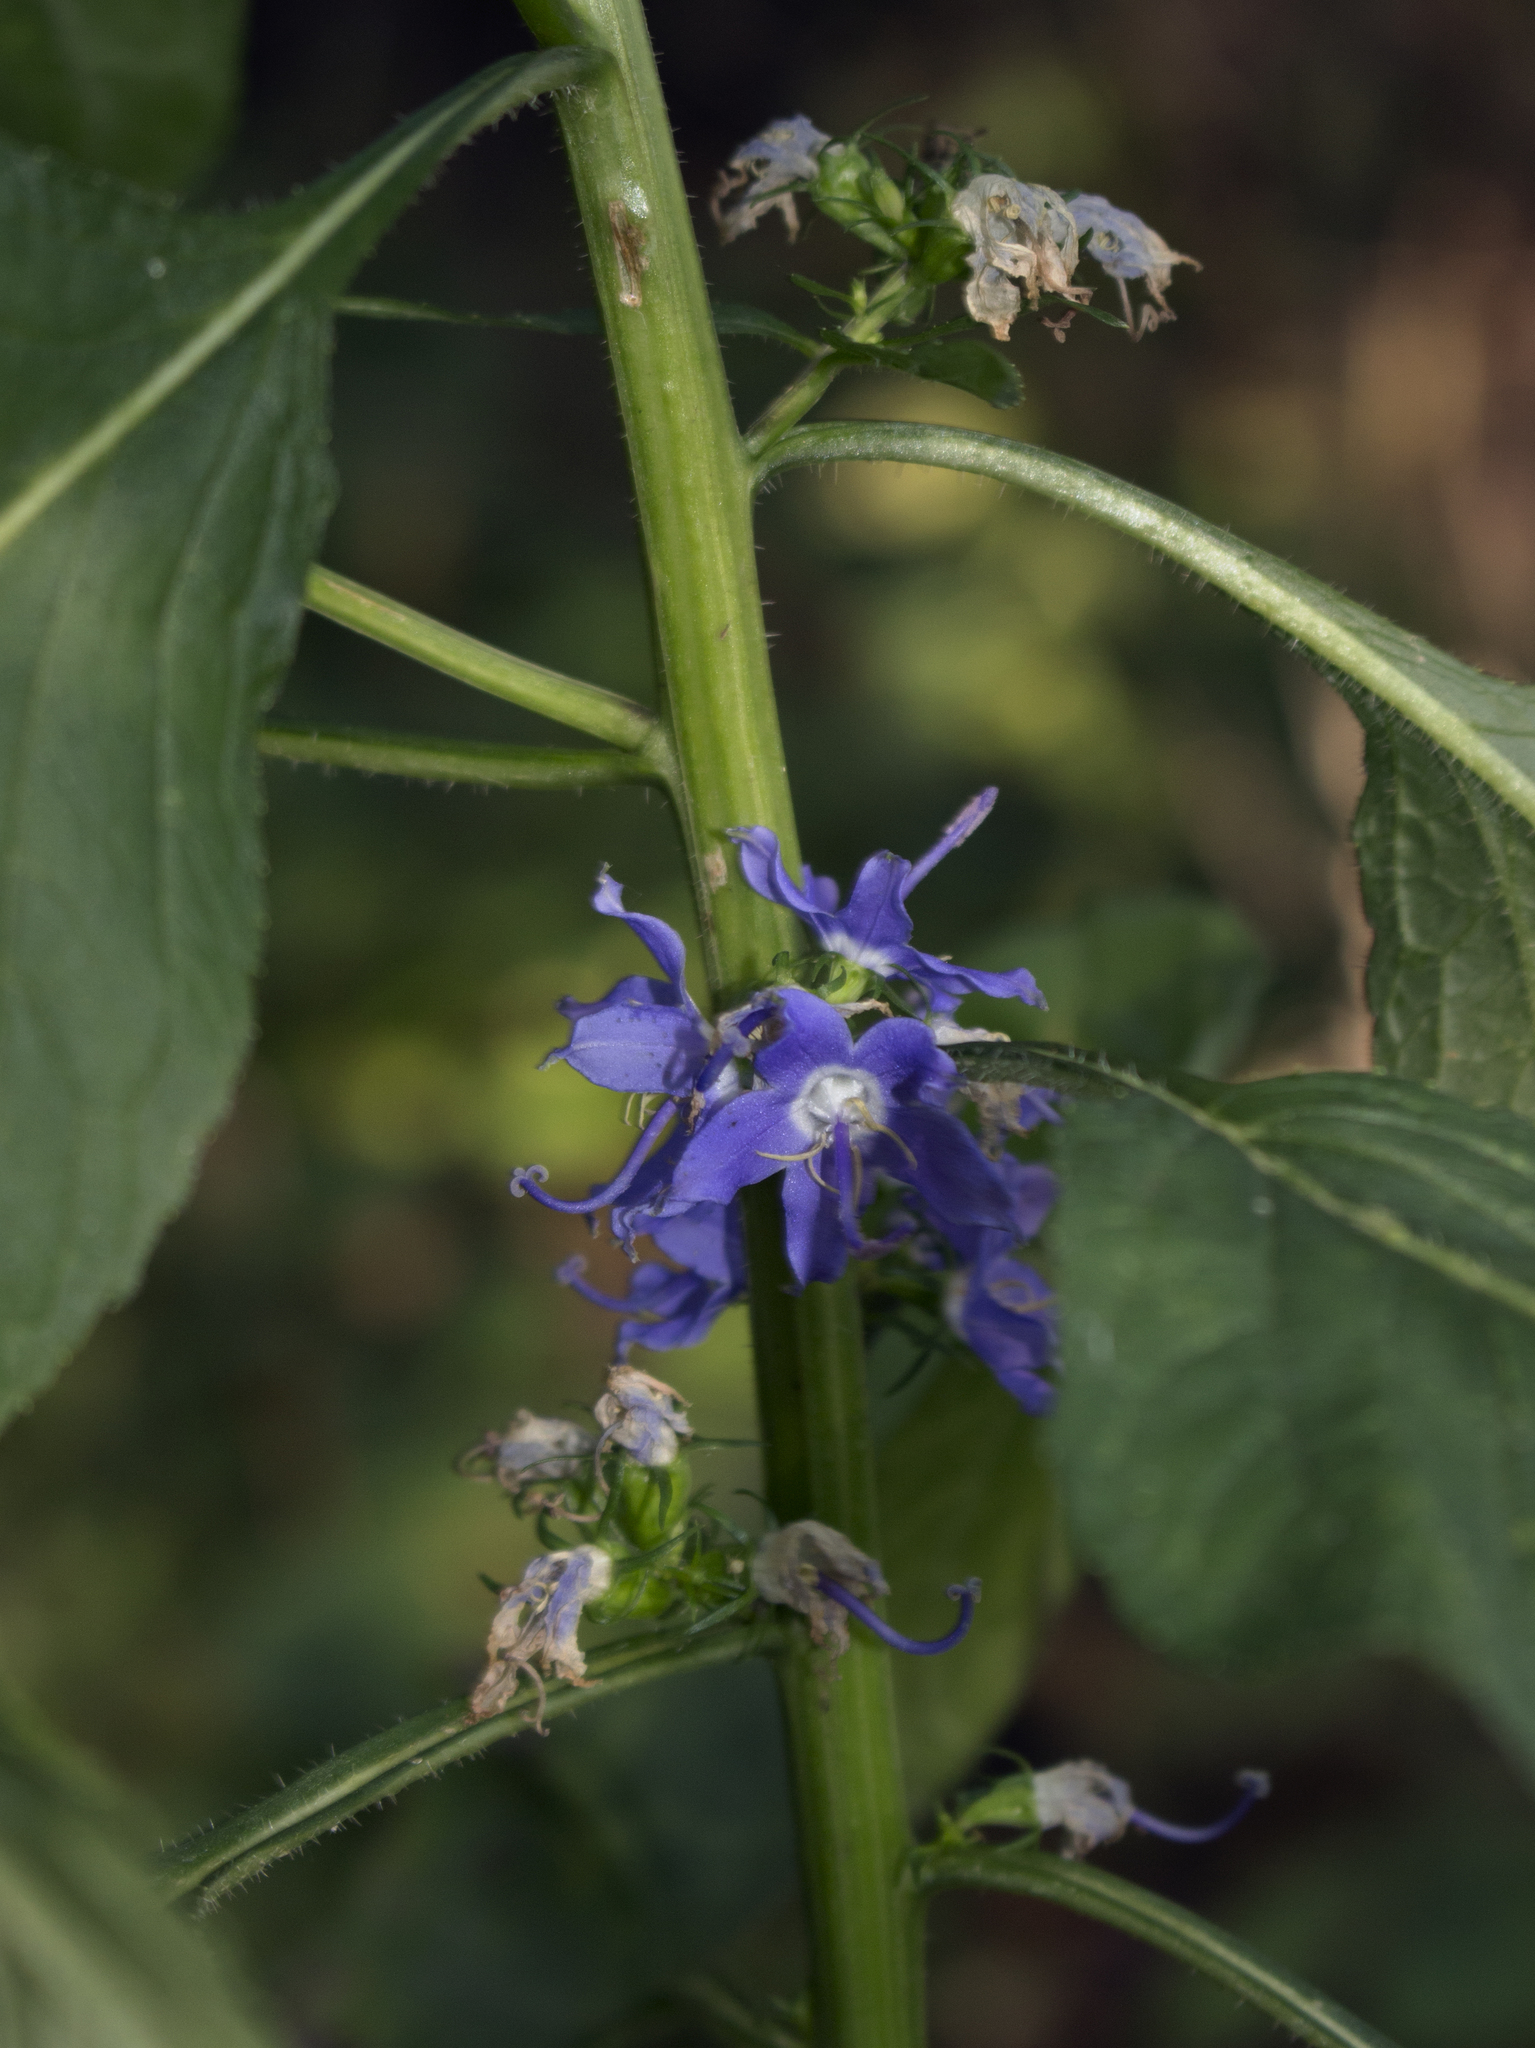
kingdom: Plantae
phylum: Tracheophyta
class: Magnoliopsida
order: Asterales
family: Campanulaceae
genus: Campanulastrum
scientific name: Campanulastrum americanum
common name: American bellflower
